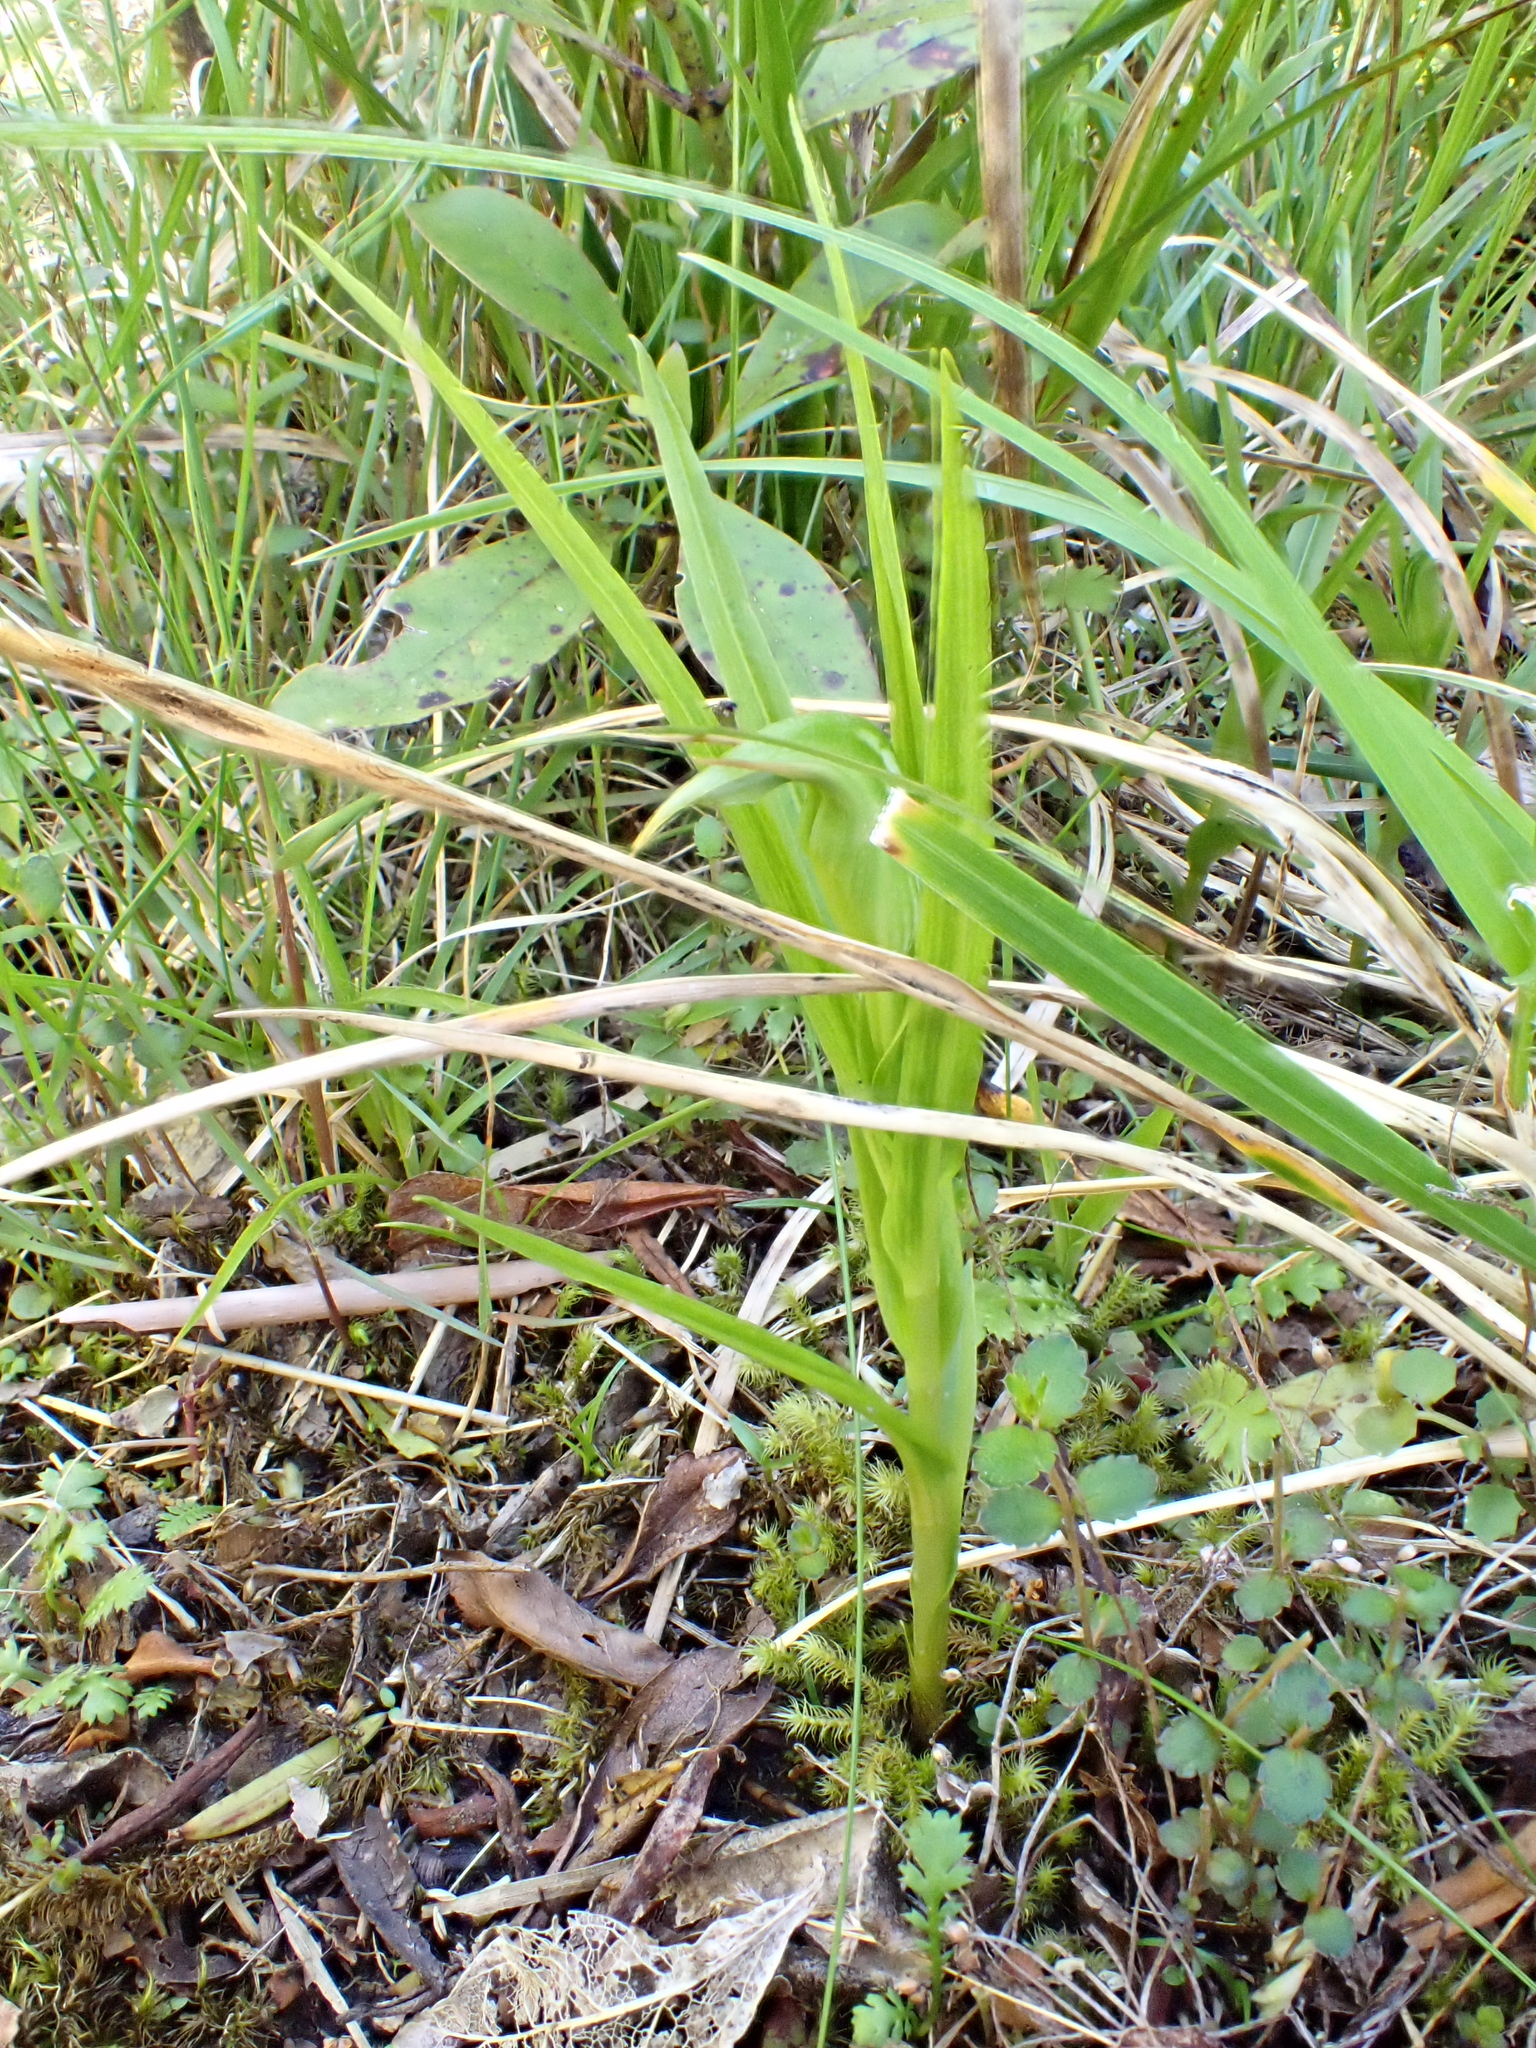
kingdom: Plantae
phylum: Tracheophyta
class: Liliopsida
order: Asparagales
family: Orchidaceae
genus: Pterostylis
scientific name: Pterostylis montana
